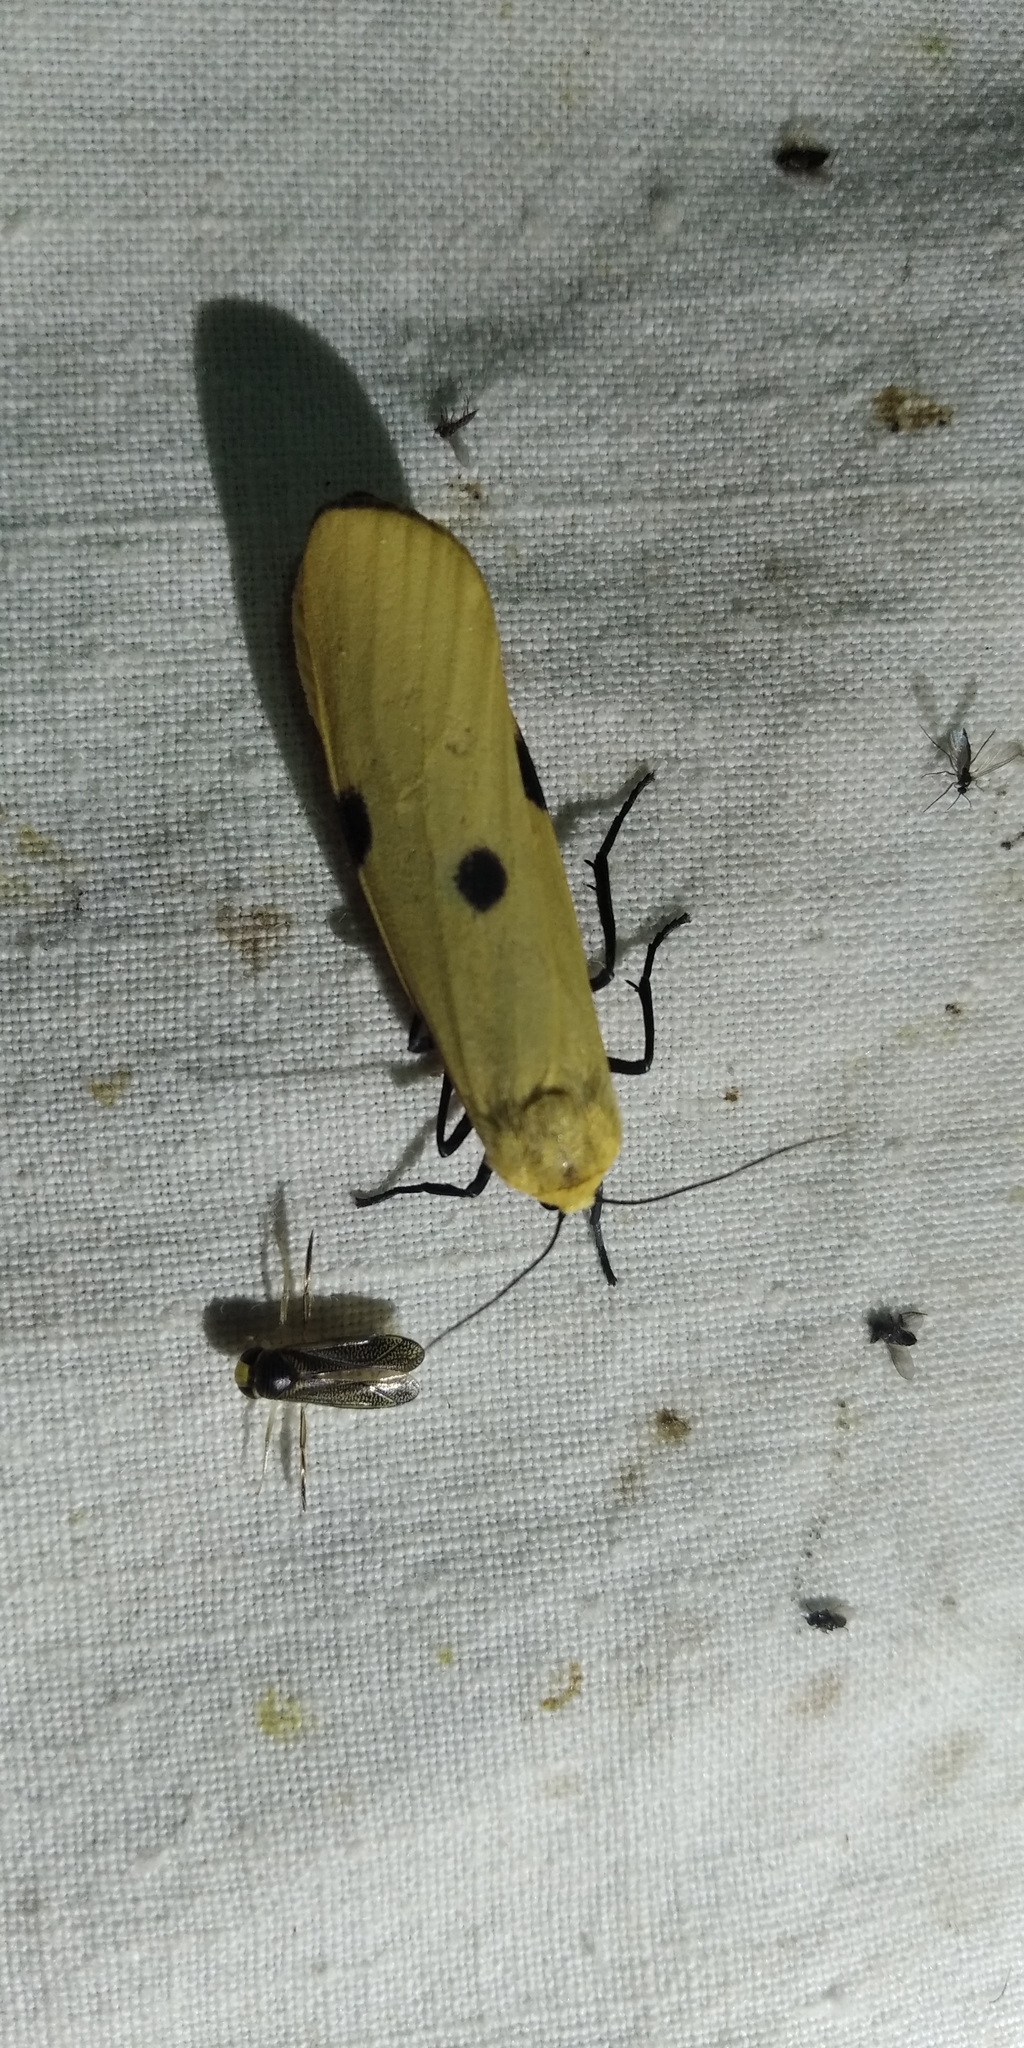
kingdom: Animalia
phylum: Arthropoda
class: Insecta
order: Lepidoptera
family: Erebidae
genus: Lithosia
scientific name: Lithosia quadra
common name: Four-spotted footman
